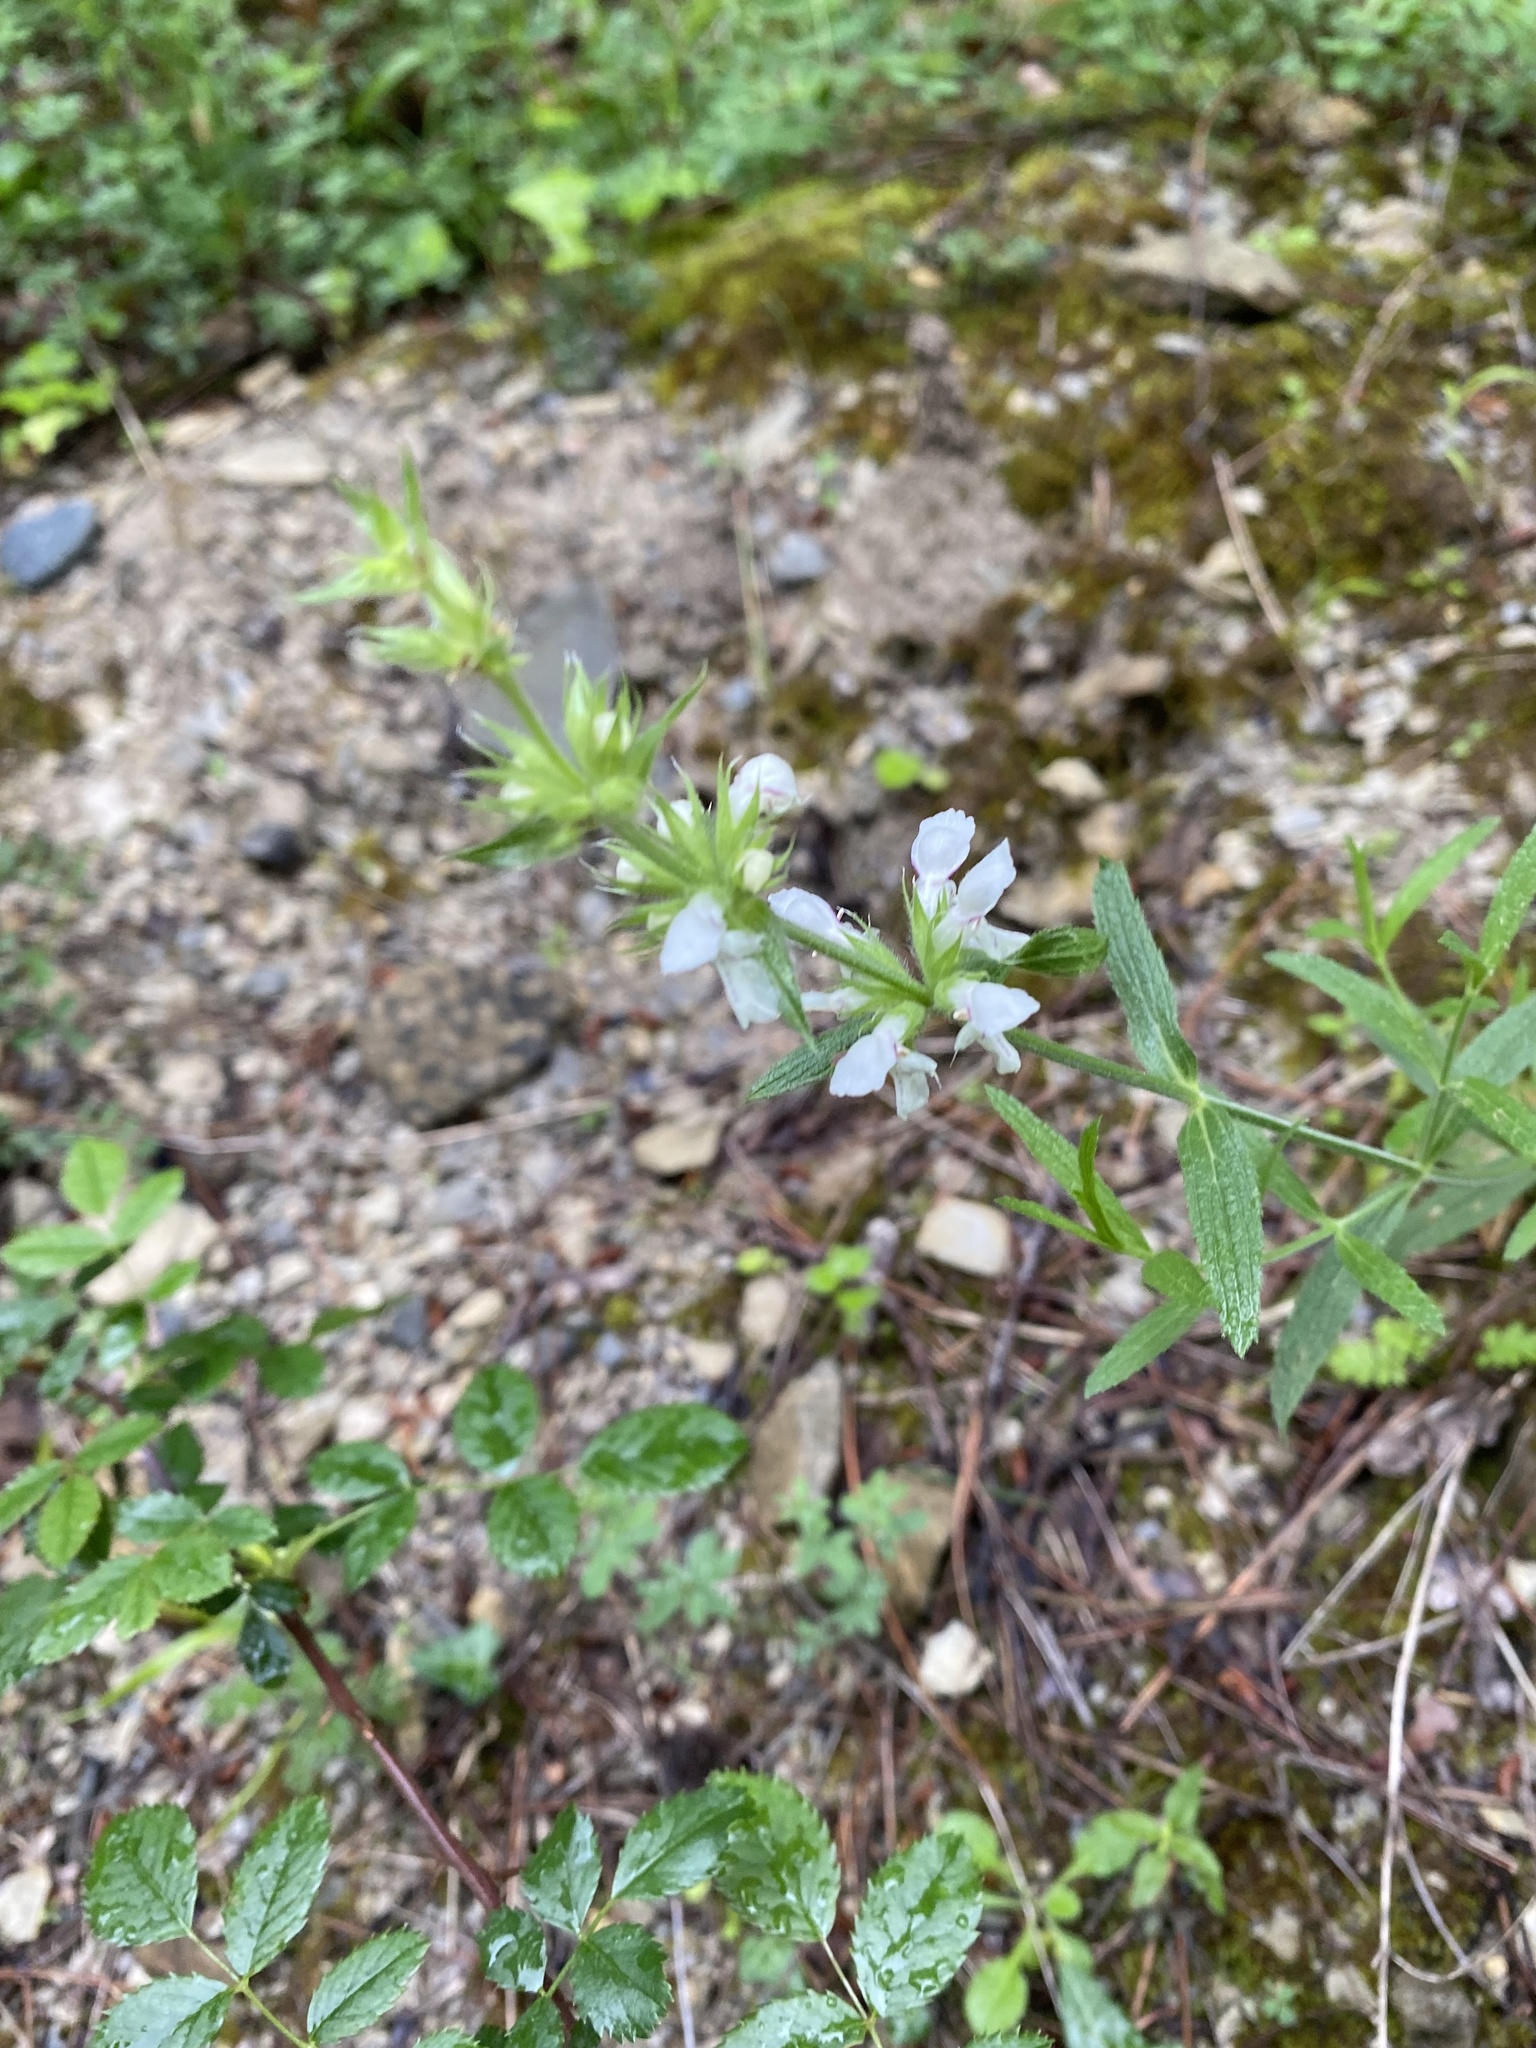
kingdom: Plantae
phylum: Tracheophyta
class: Magnoliopsida
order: Lamiales
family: Lamiaceae
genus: Stachys
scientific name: Stachys atherocalyx
